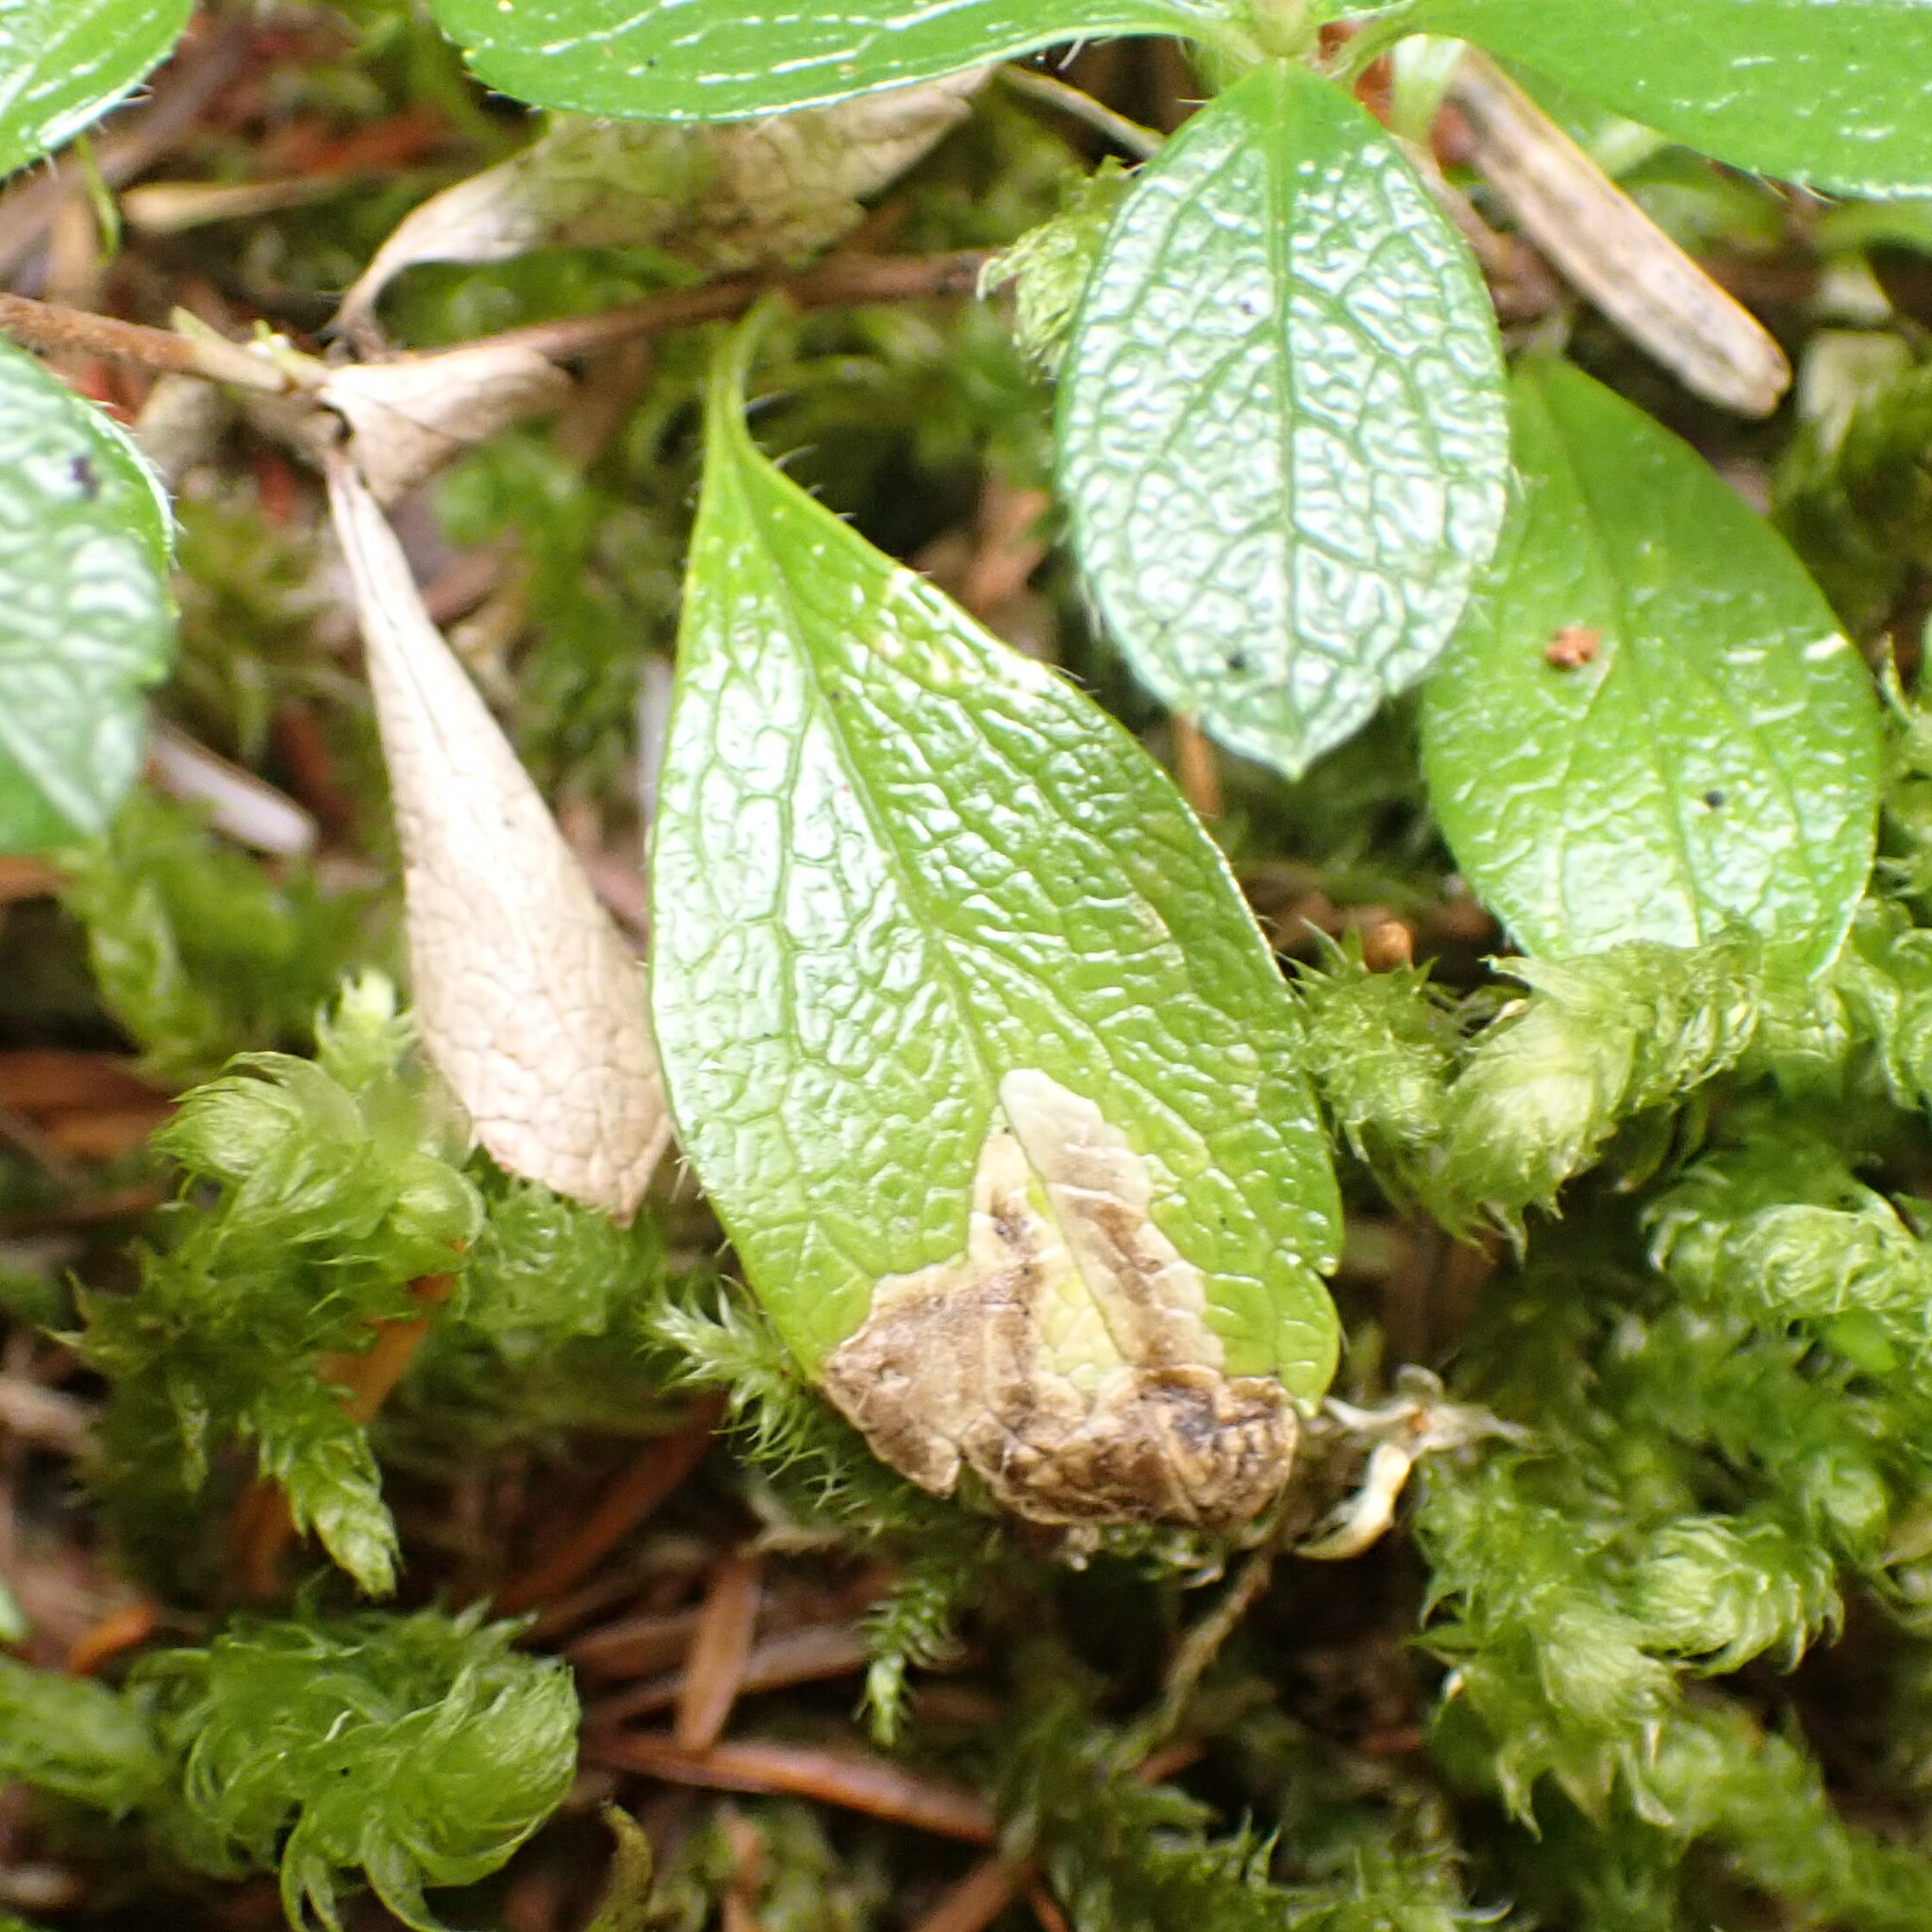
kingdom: Animalia
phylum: Arthropoda
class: Insecta
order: Diptera
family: Agromyzidae
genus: Phytomyza
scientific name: Phytomyza linnaeae
